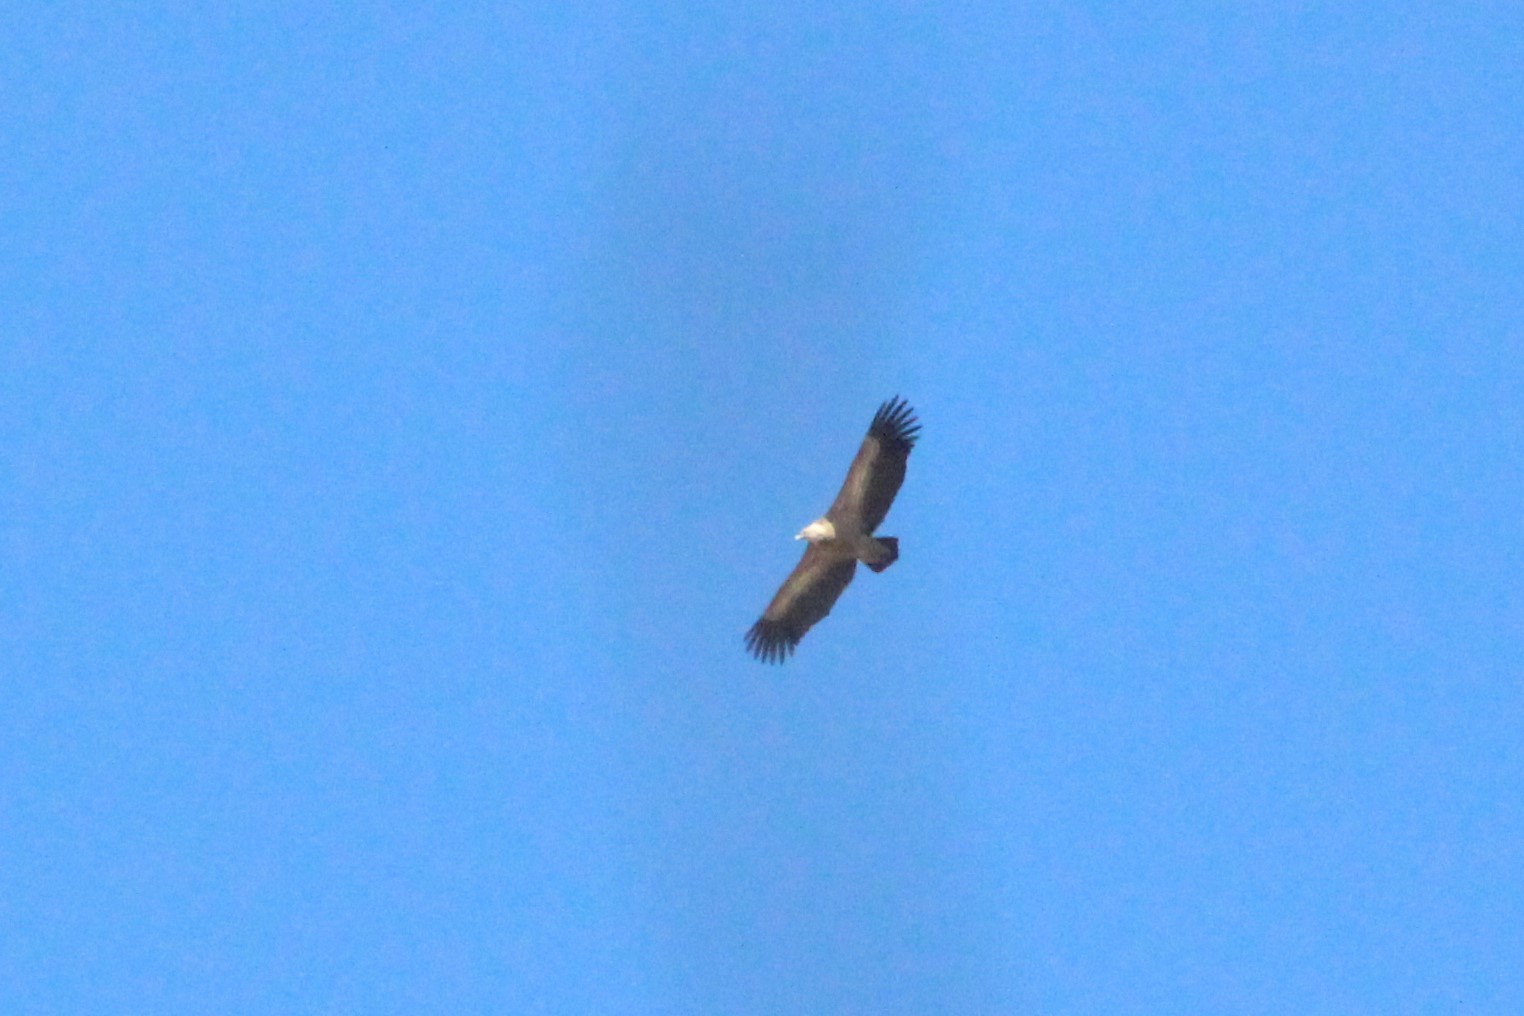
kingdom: Animalia
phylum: Chordata
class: Aves
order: Accipitriformes
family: Accipitridae
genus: Gyps
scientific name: Gyps fulvus
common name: Griffon vulture
